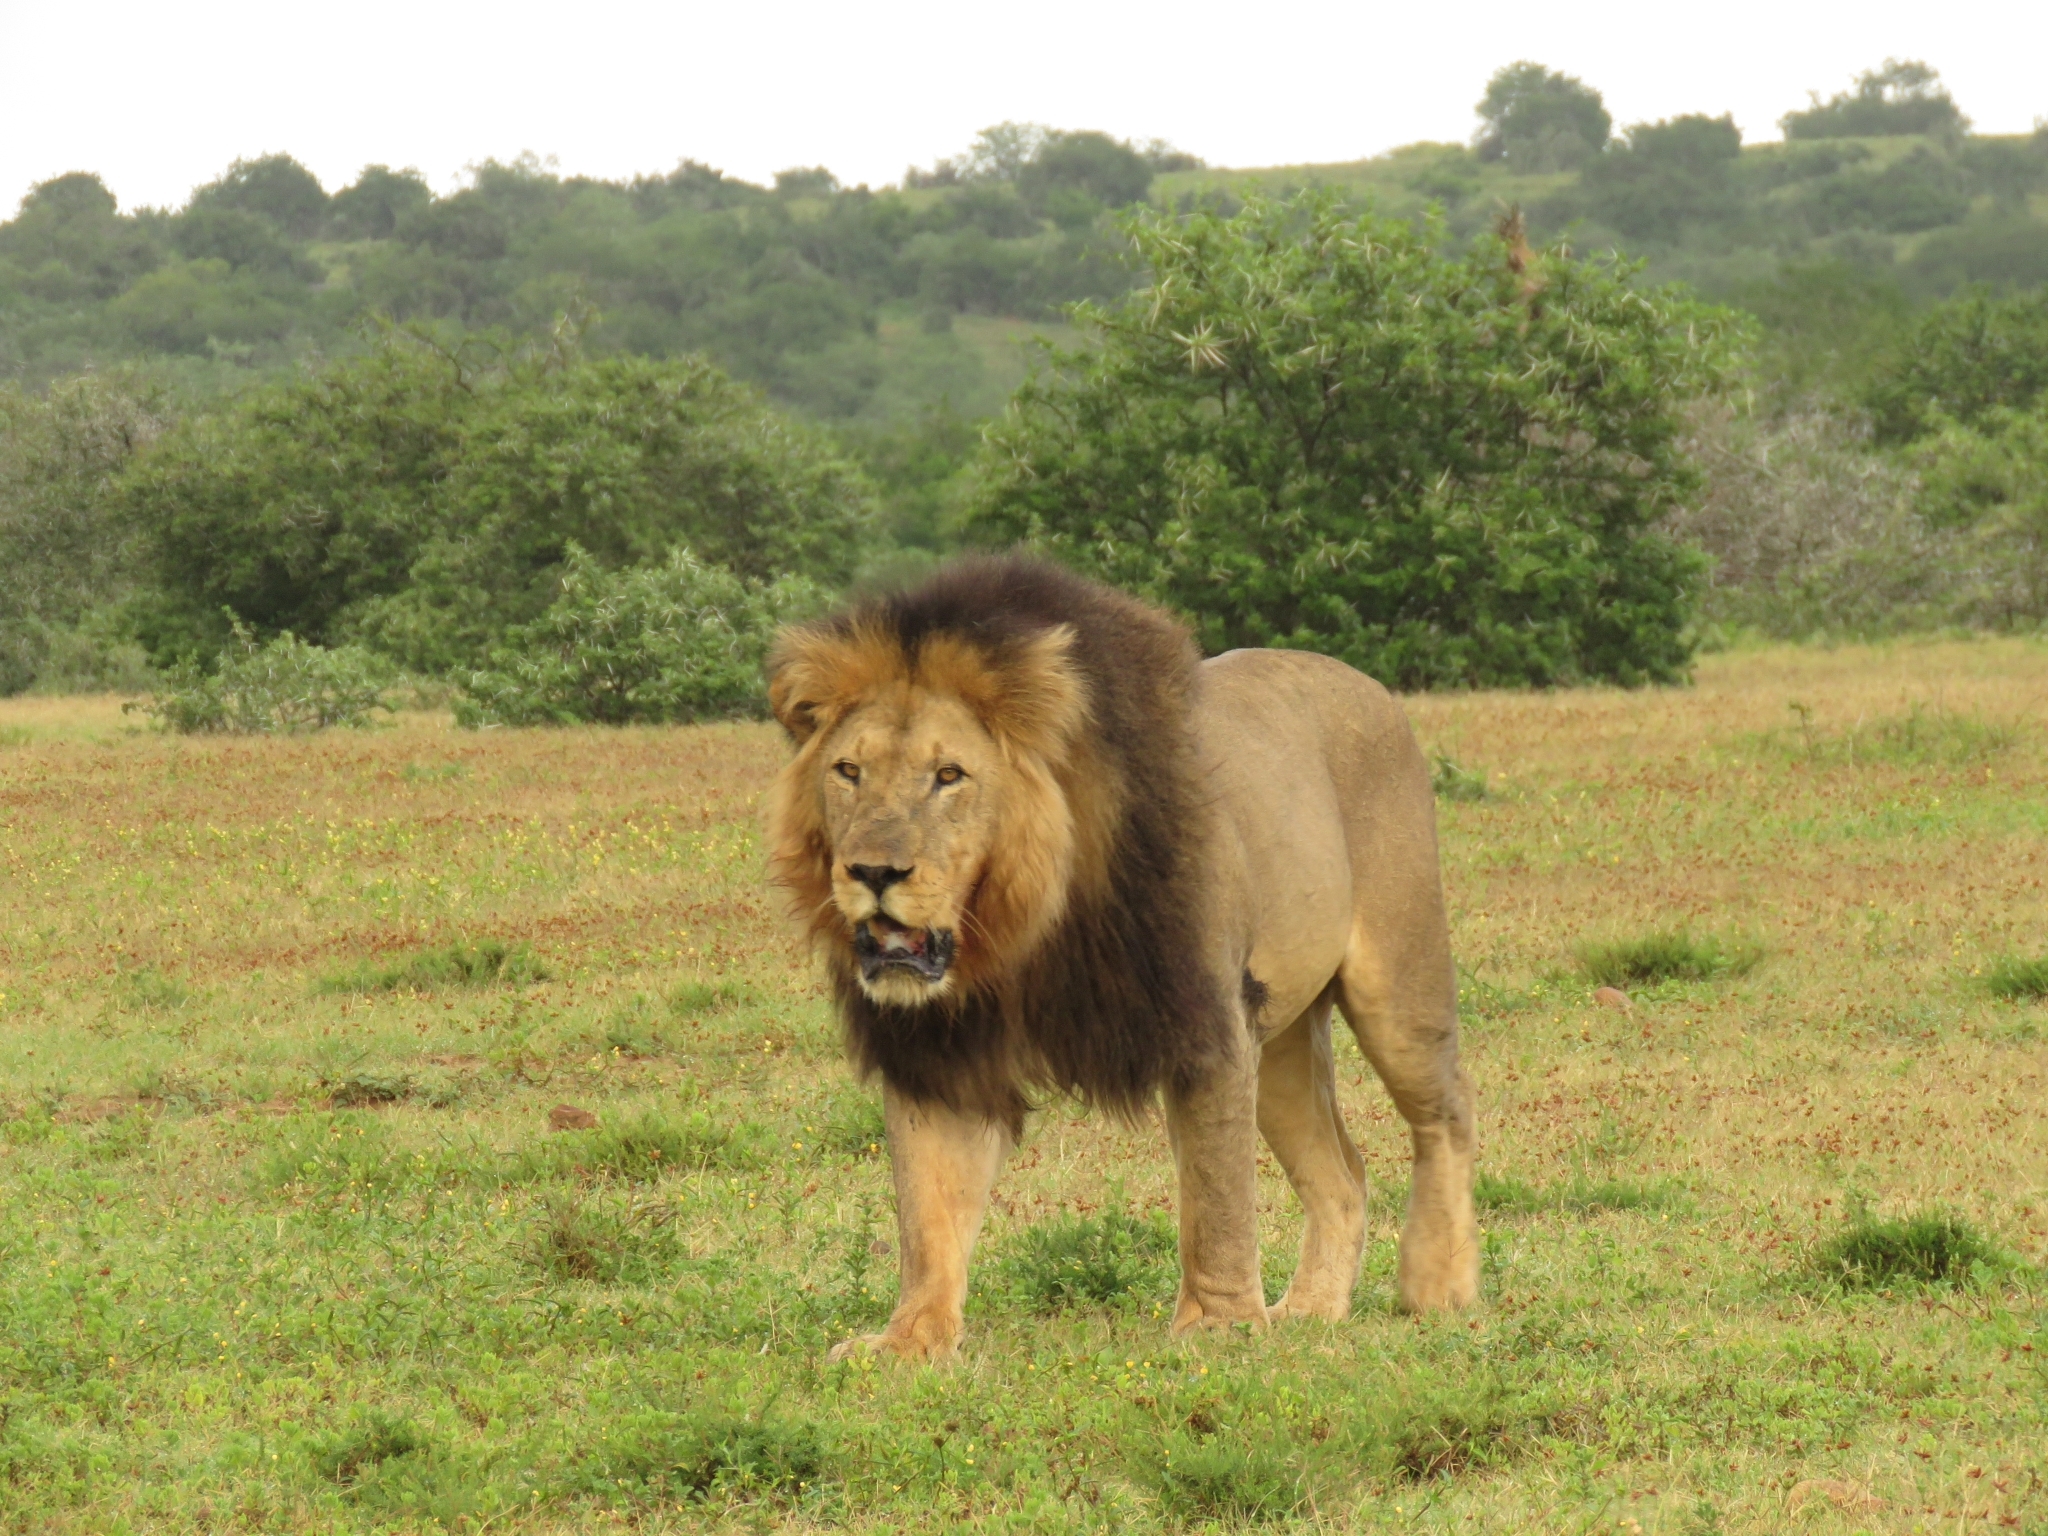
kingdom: Animalia
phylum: Chordata
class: Mammalia
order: Carnivora
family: Felidae
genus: Panthera
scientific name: Panthera leo
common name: Lion
